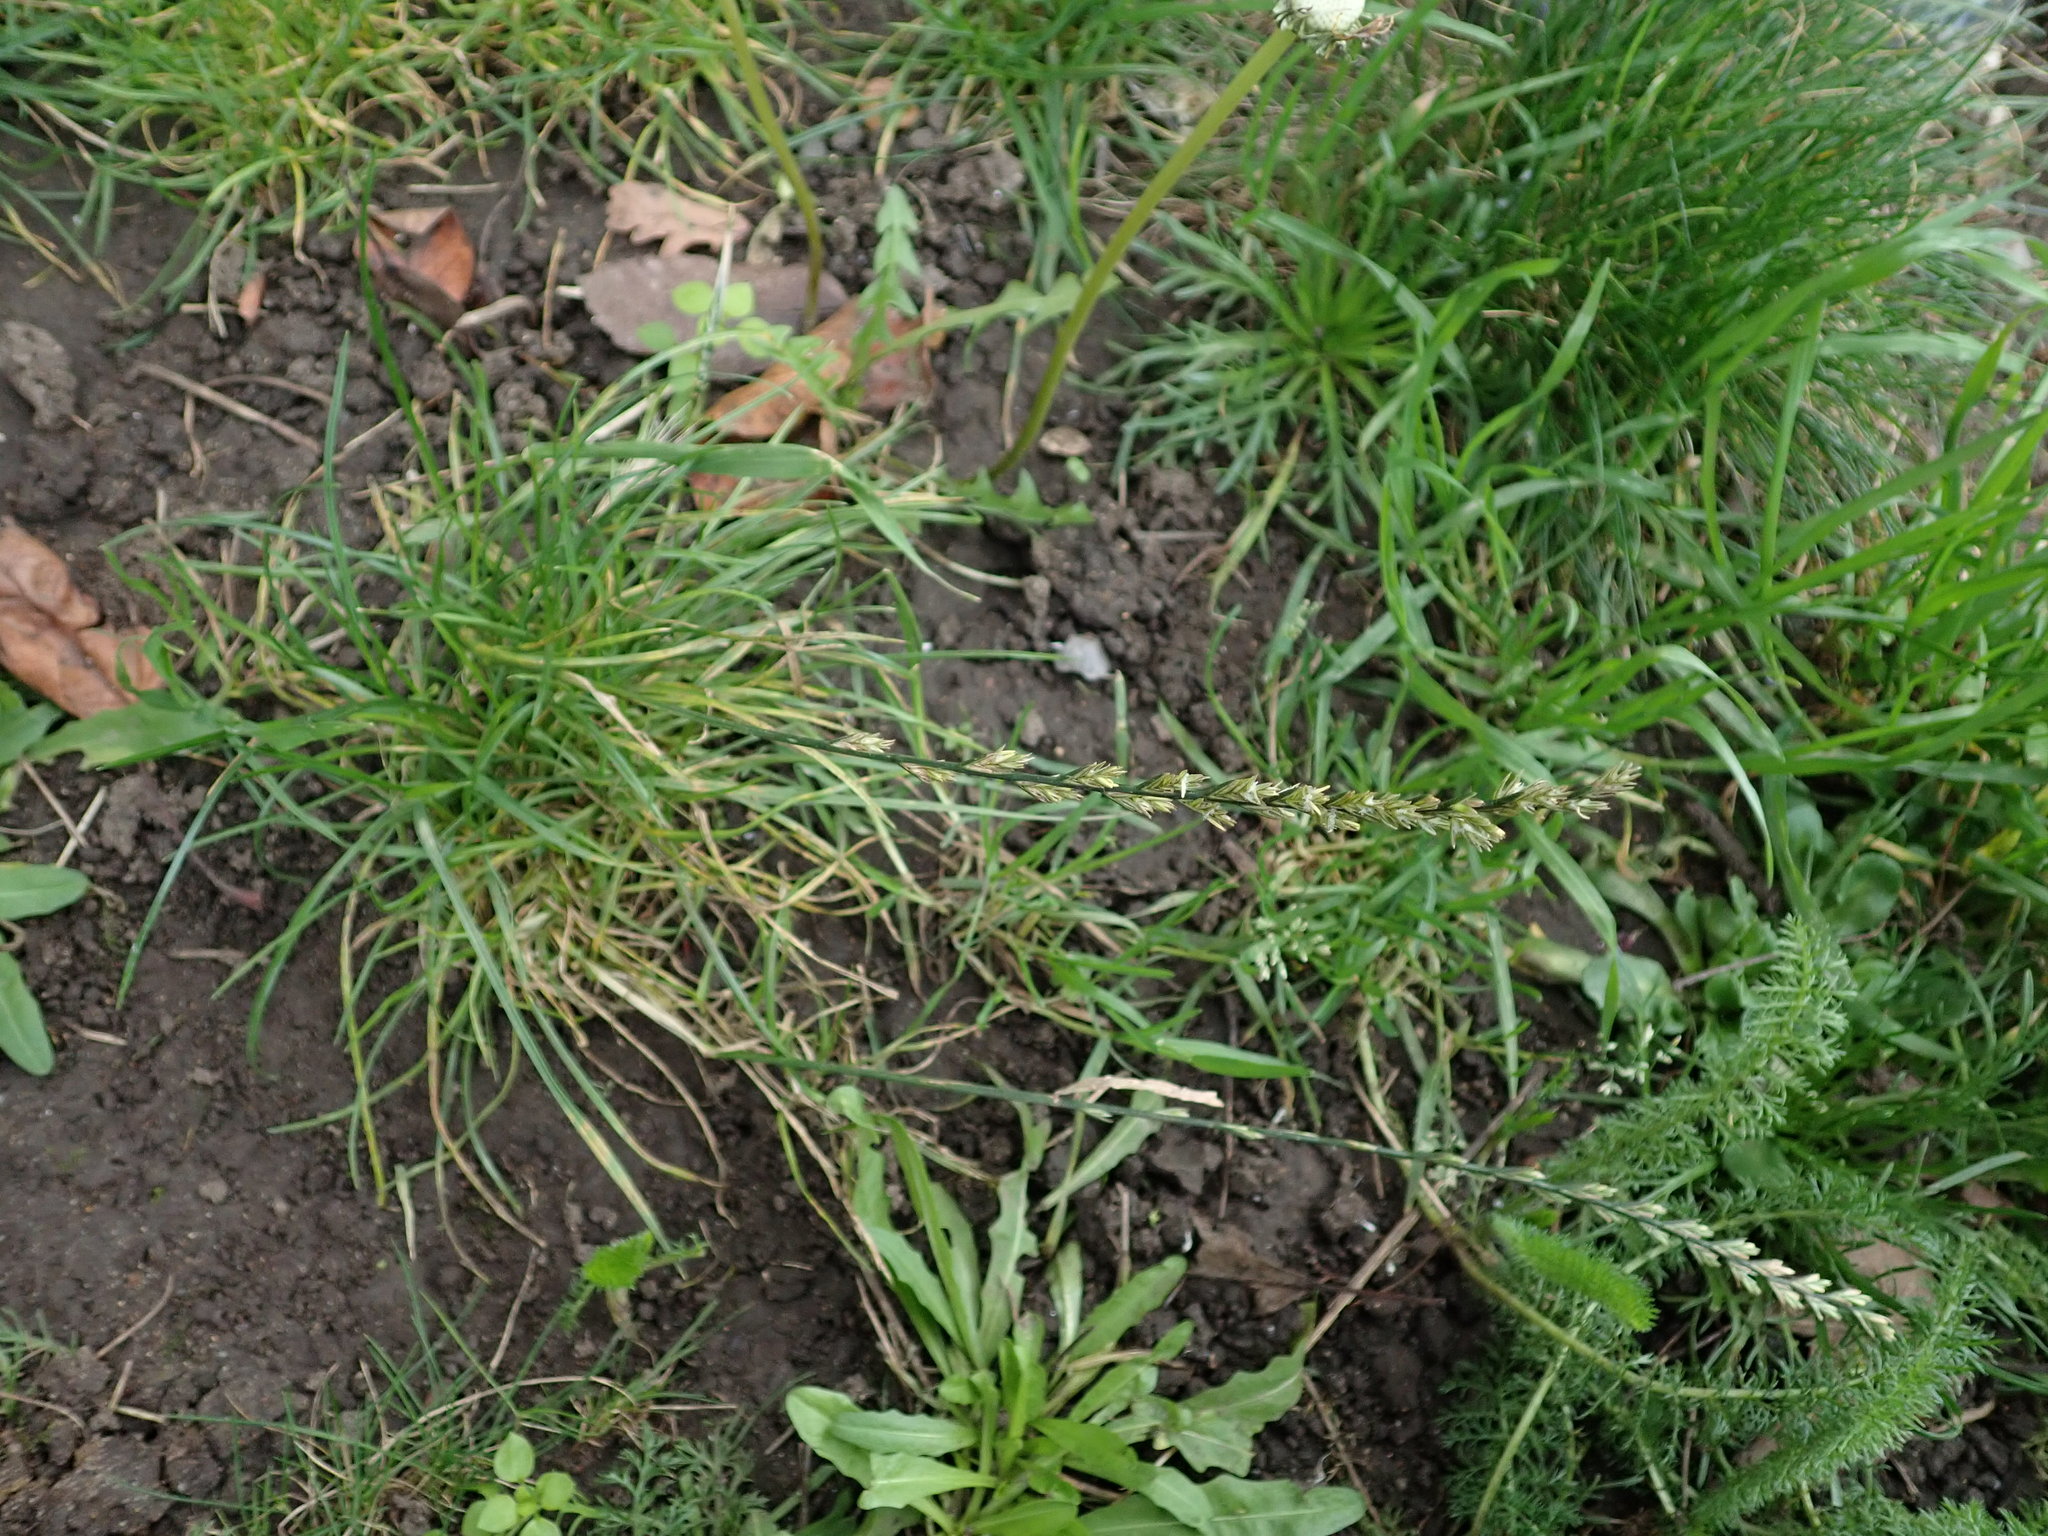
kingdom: Plantae
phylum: Tracheophyta
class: Liliopsida
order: Poales
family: Poaceae
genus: Lolium
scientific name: Lolium perenne
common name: Perennial ryegrass
